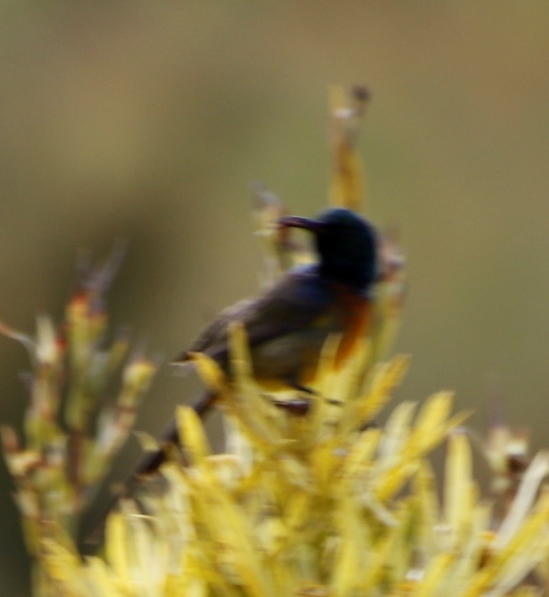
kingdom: Animalia
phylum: Chordata
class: Aves
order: Passeriformes
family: Nectariniidae
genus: Anthobaphes
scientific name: Anthobaphes violacea
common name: Orange-breasted sunbird
